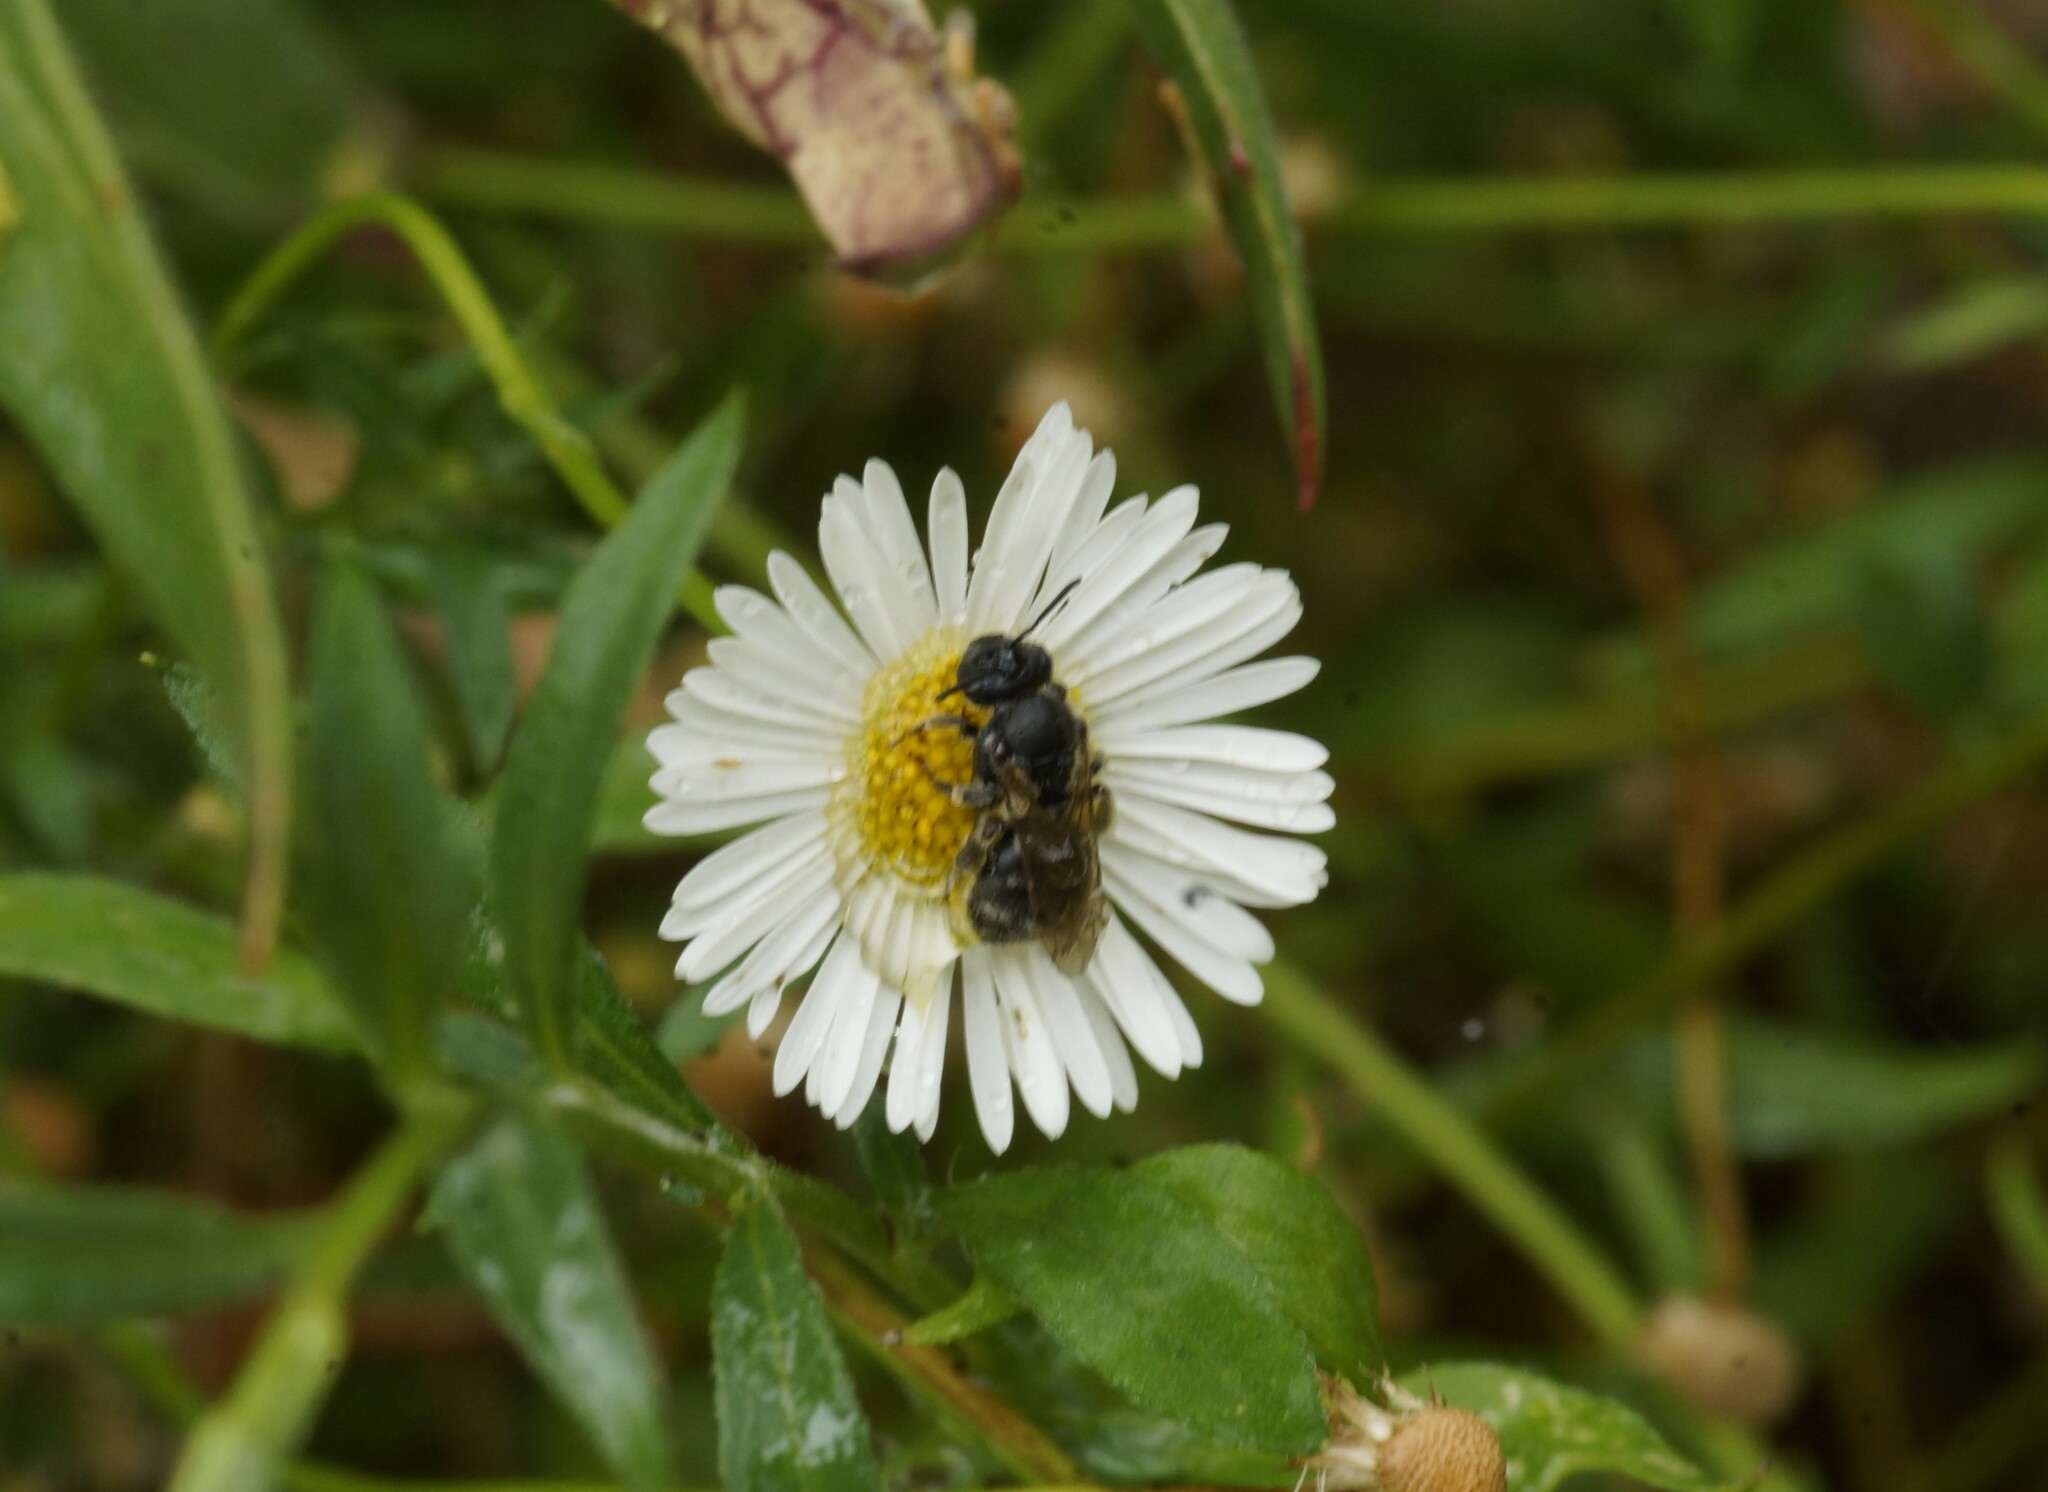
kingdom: Animalia
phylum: Arthropoda
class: Insecta
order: Hymenoptera
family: Halictidae
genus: Lasioglossum
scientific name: Lasioglossum lanarium
